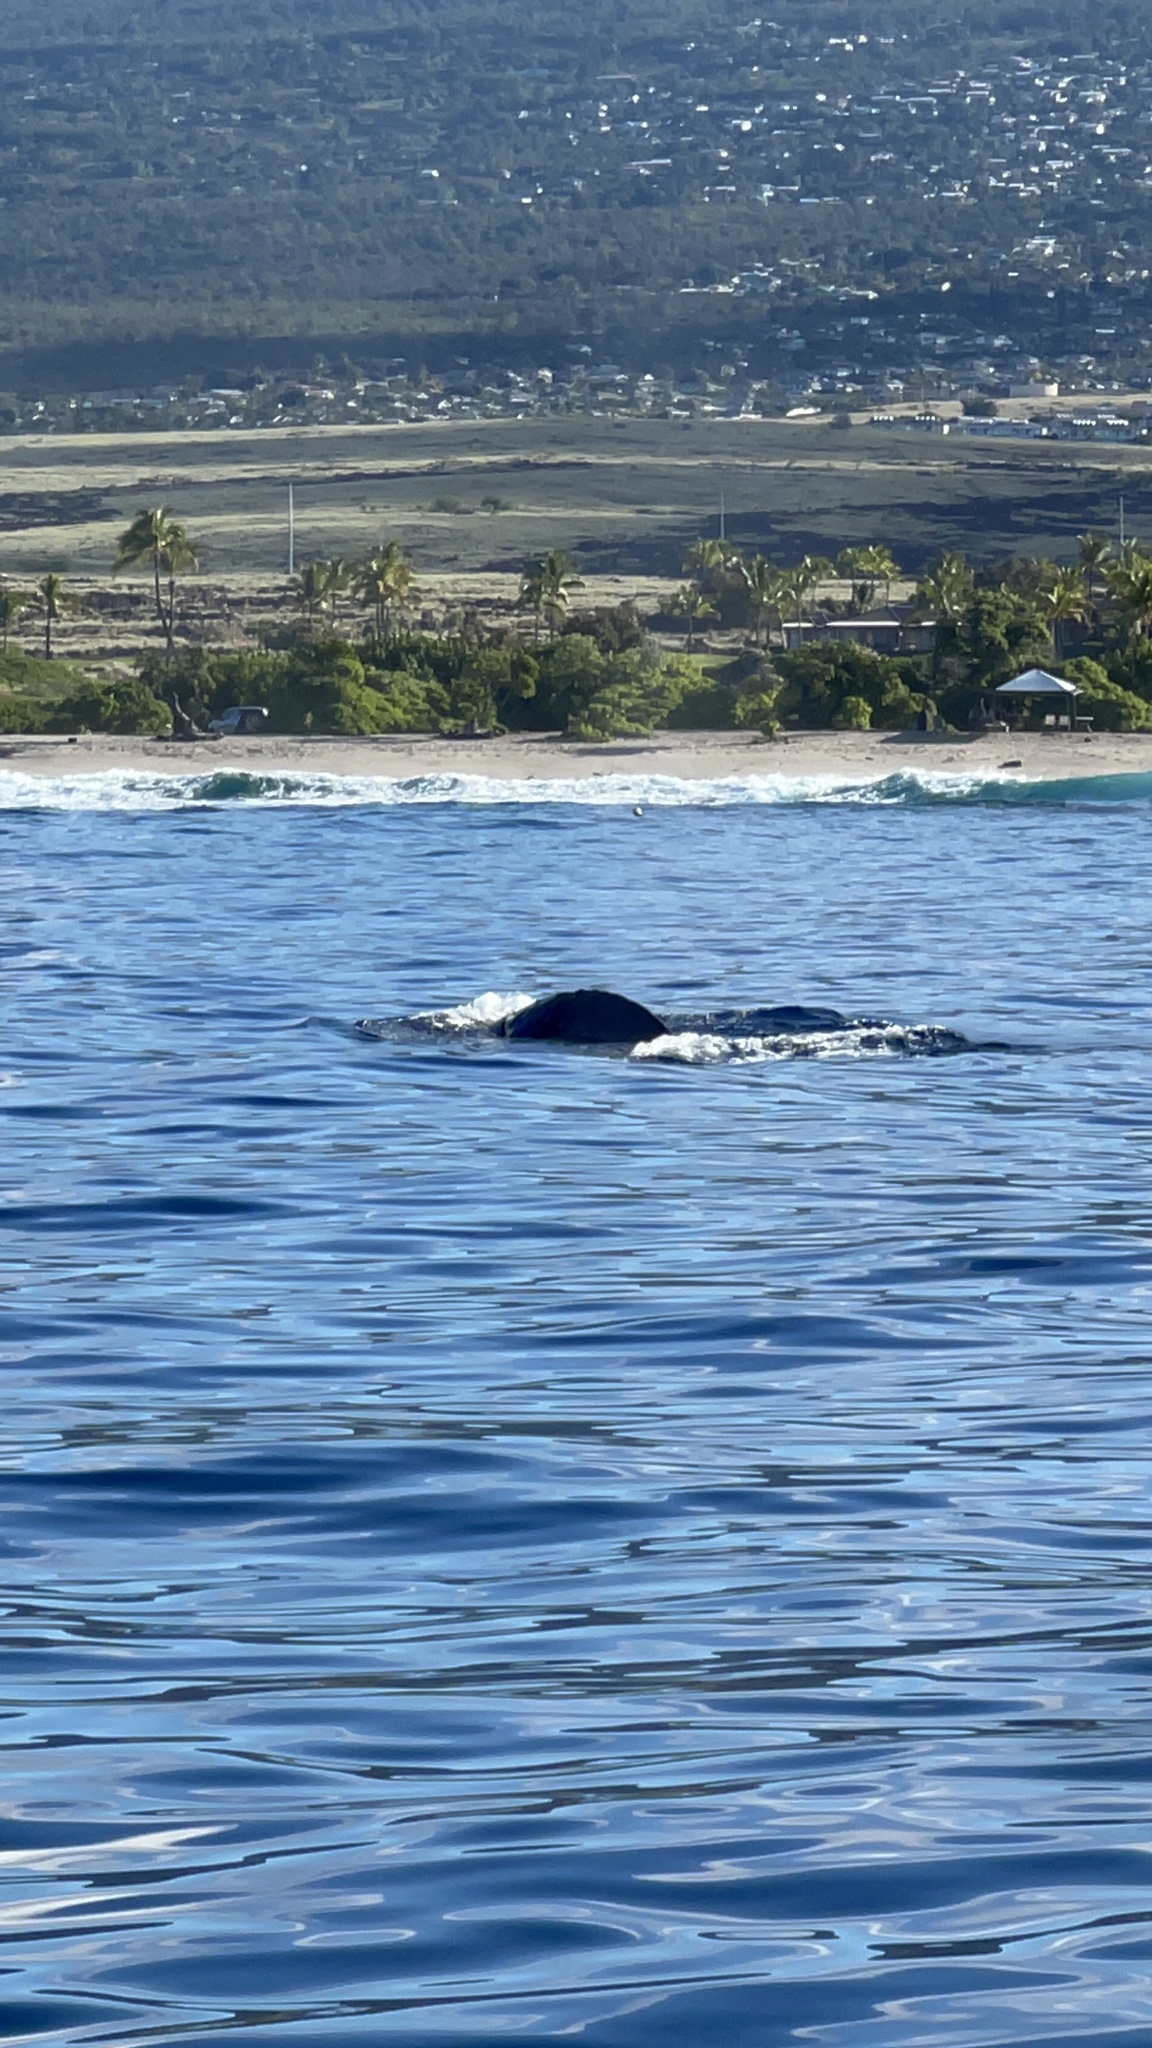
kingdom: Animalia
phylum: Chordata
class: Mammalia
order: Cetacea
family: Balaenopteridae
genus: Megaptera
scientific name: Megaptera novaeangliae
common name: Humpback whale
